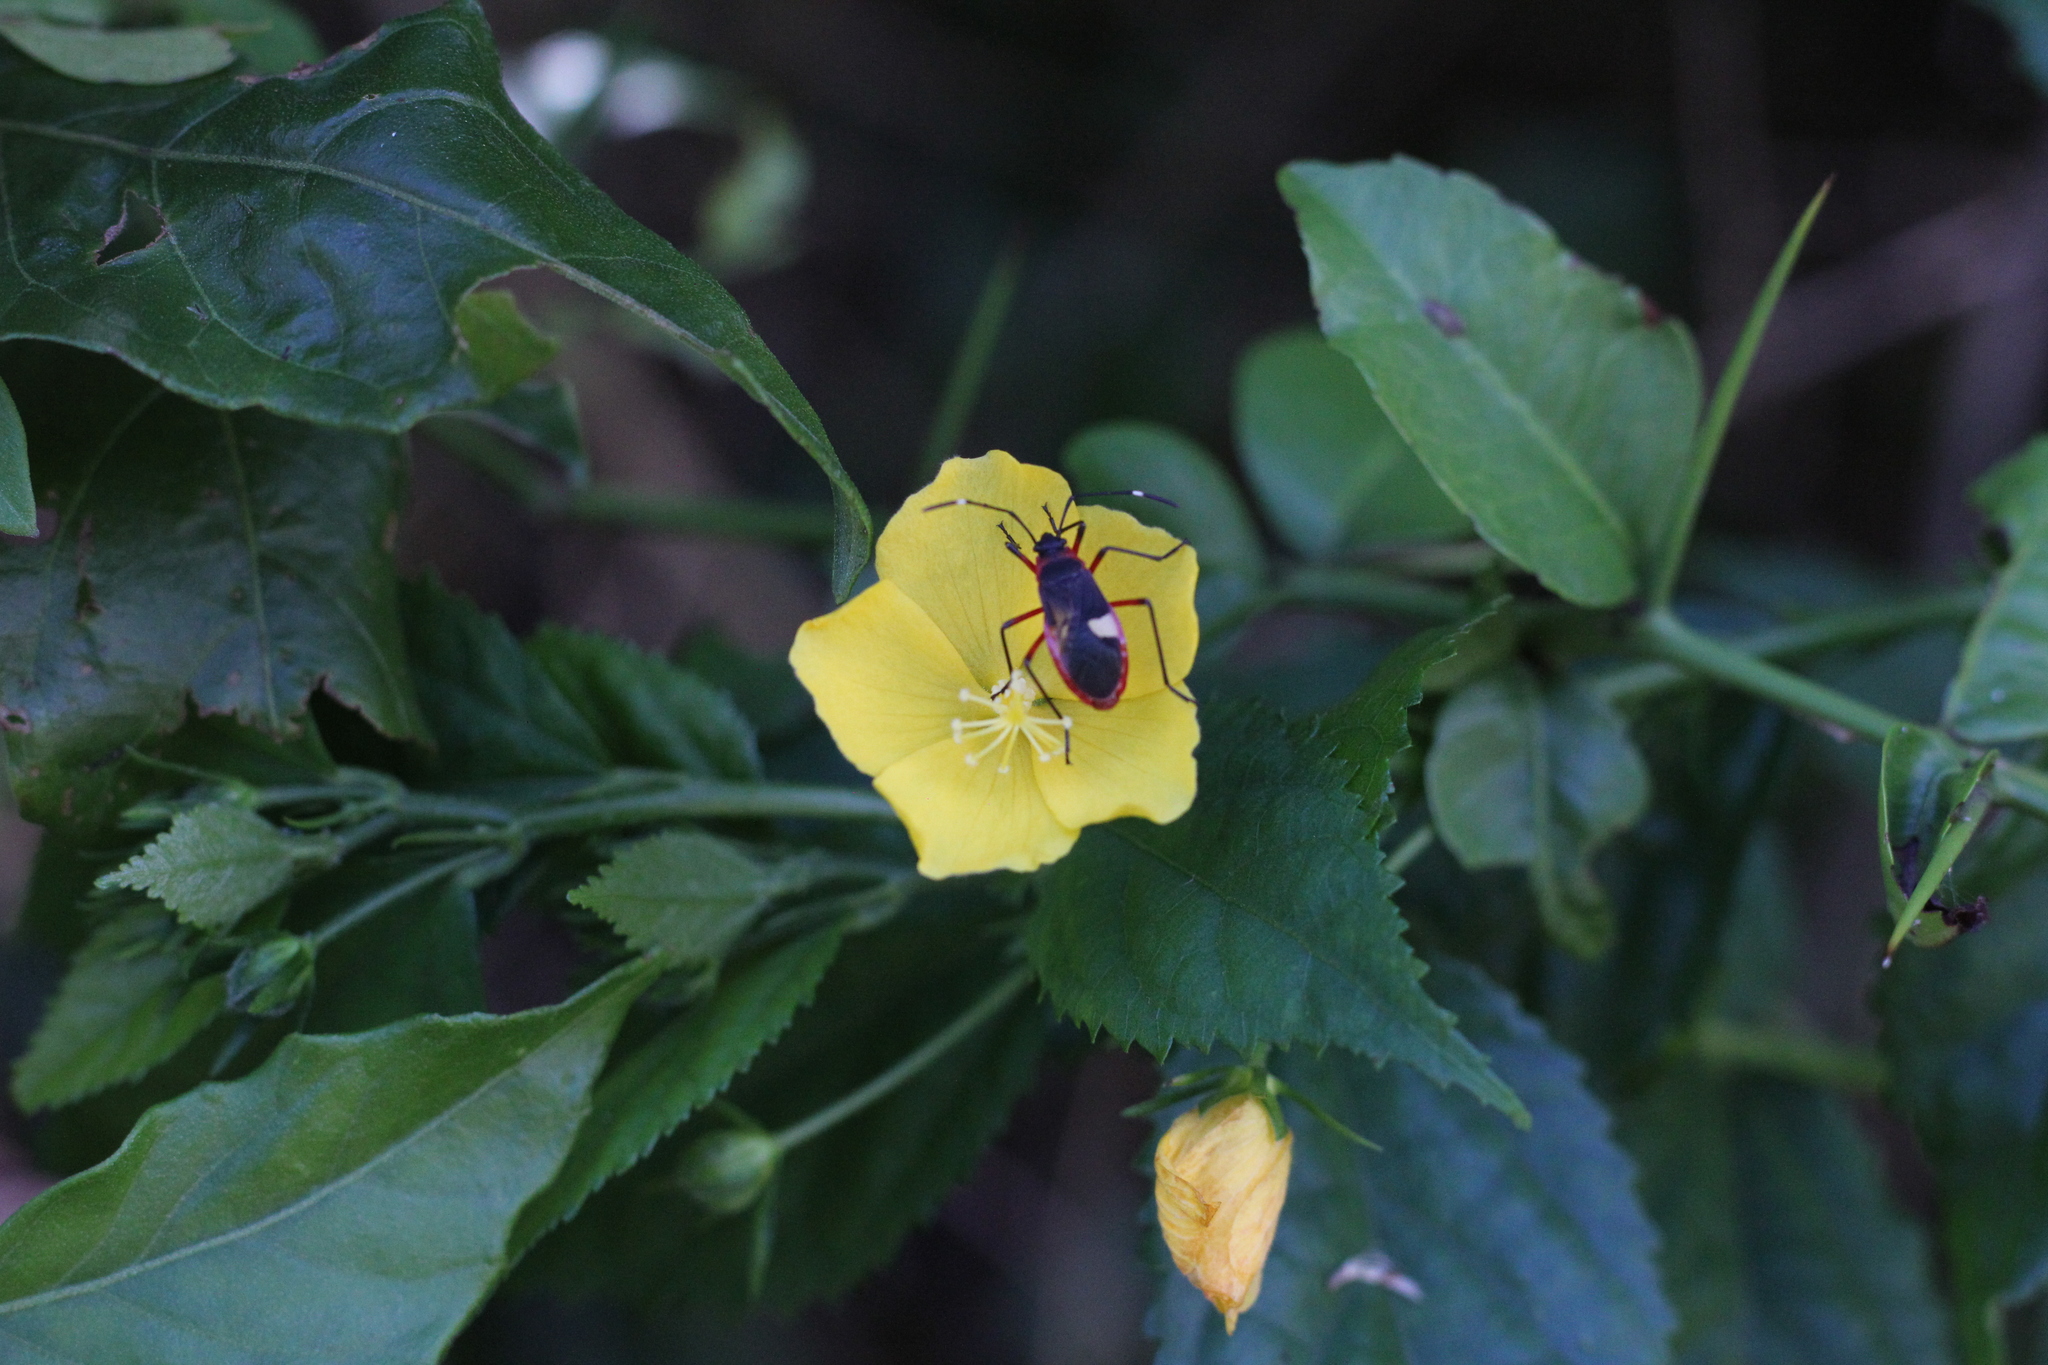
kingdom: Animalia
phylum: Arthropoda
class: Insecta
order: Hemiptera
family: Pyrrhocoridae
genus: Dysdercus
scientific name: Dysdercus albofasciatus
